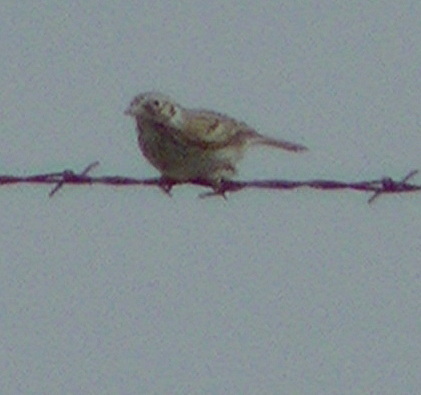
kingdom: Animalia
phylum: Chordata
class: Aves
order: Passeriformes
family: Passerellidae
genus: Pooecetes
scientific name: Pooecetes gramineus
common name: Vesper sparrow
